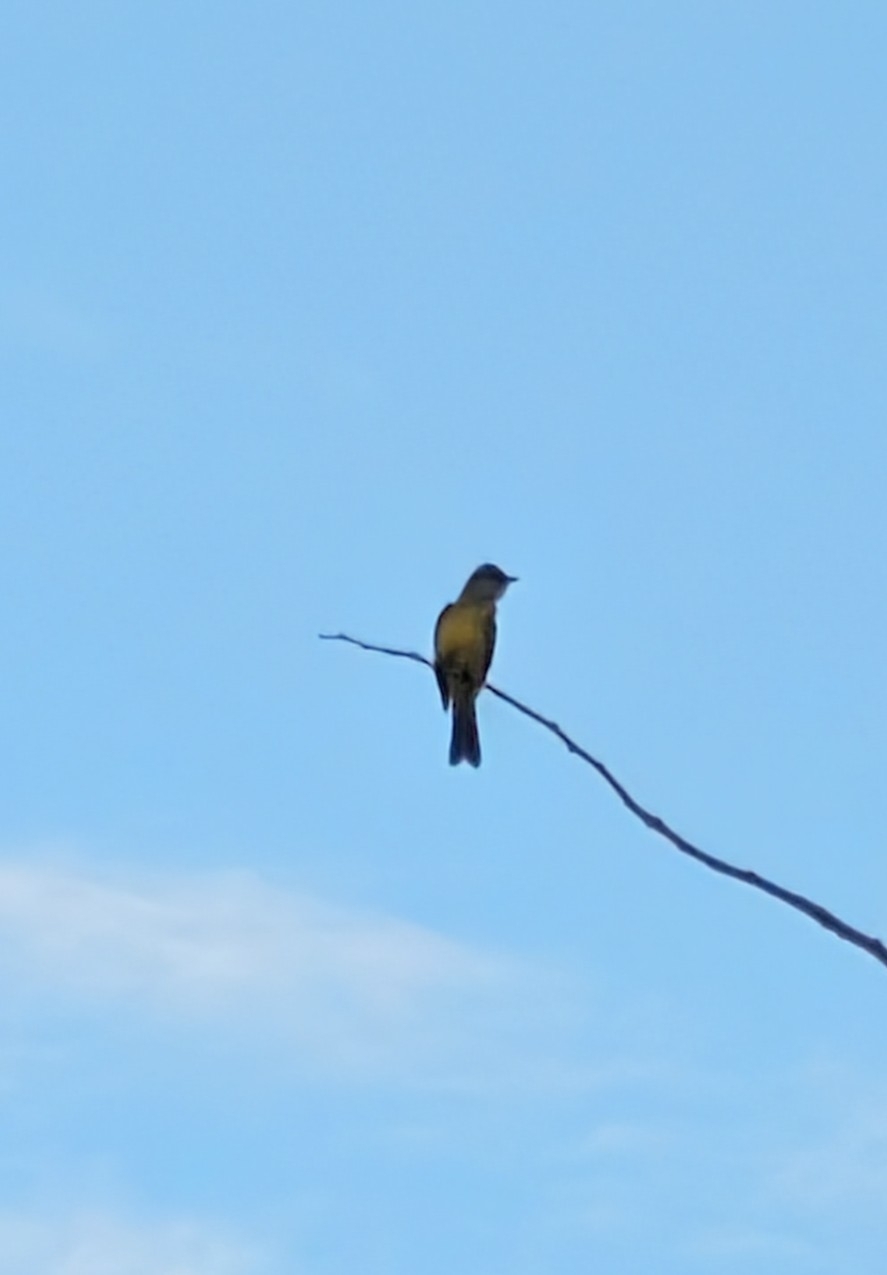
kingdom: Animalia
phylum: Chordata
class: Aves
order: Passeriformes
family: Tyrannidae
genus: Tyrannus
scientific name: Tyrannus melancholicus
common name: Tropical kingbird
